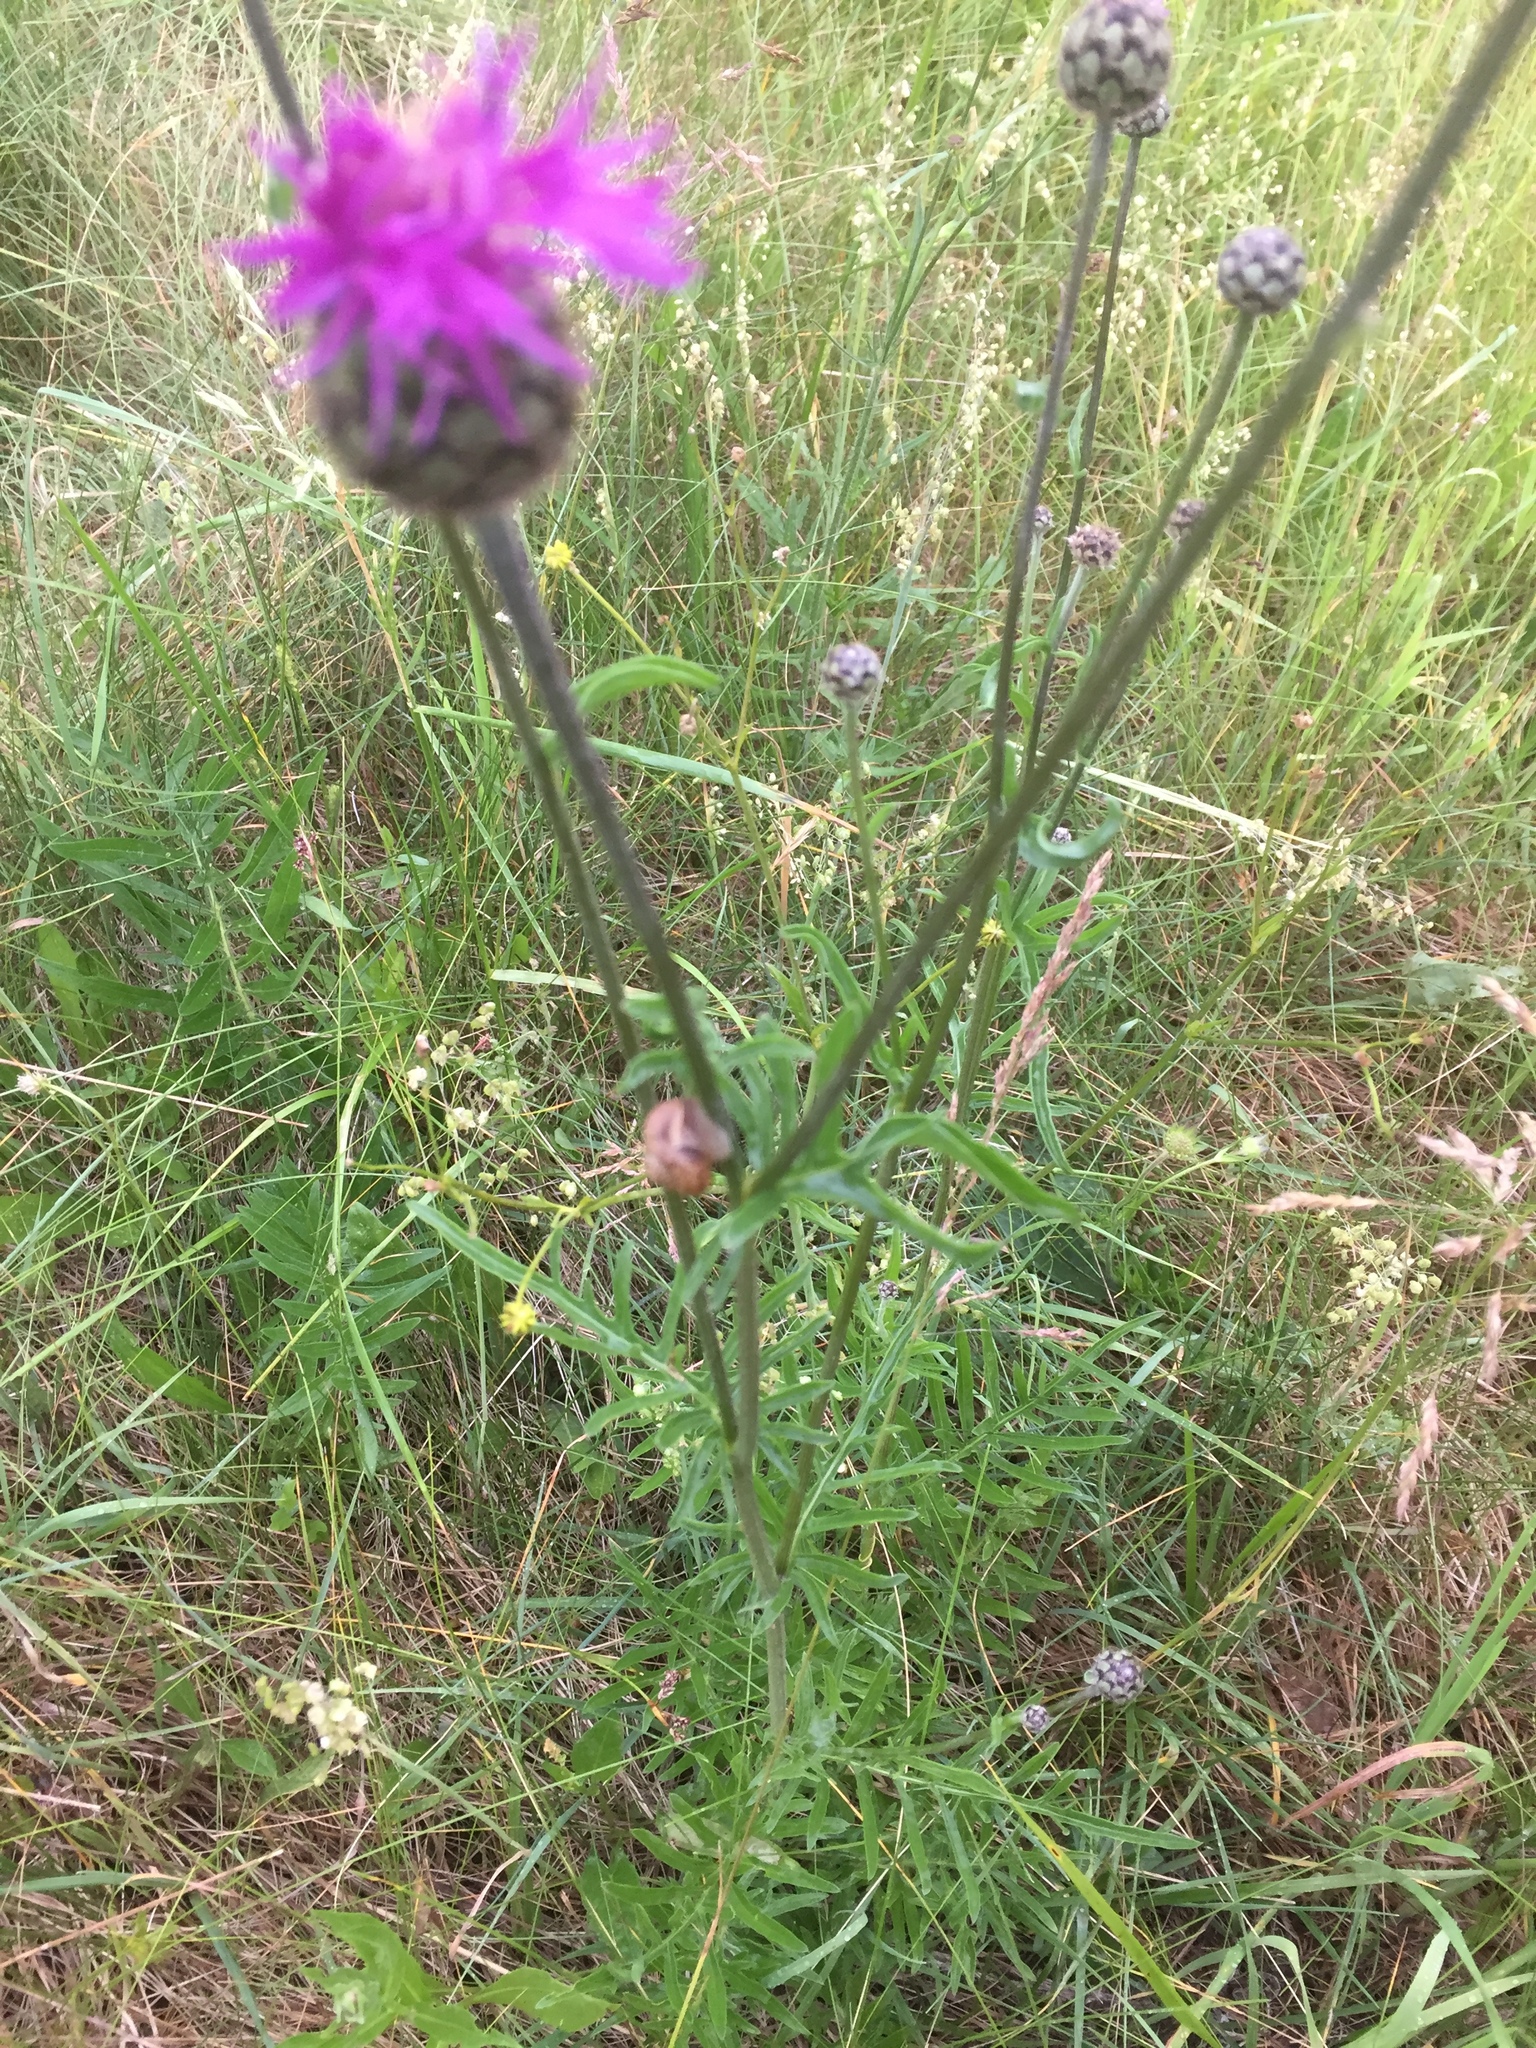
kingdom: Plantae
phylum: Tracheophyta
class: Magnoliopsida
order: Asterales
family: Asteraceae
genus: Centaurea
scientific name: Centaurea scabiosa
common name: Greater knapweed
